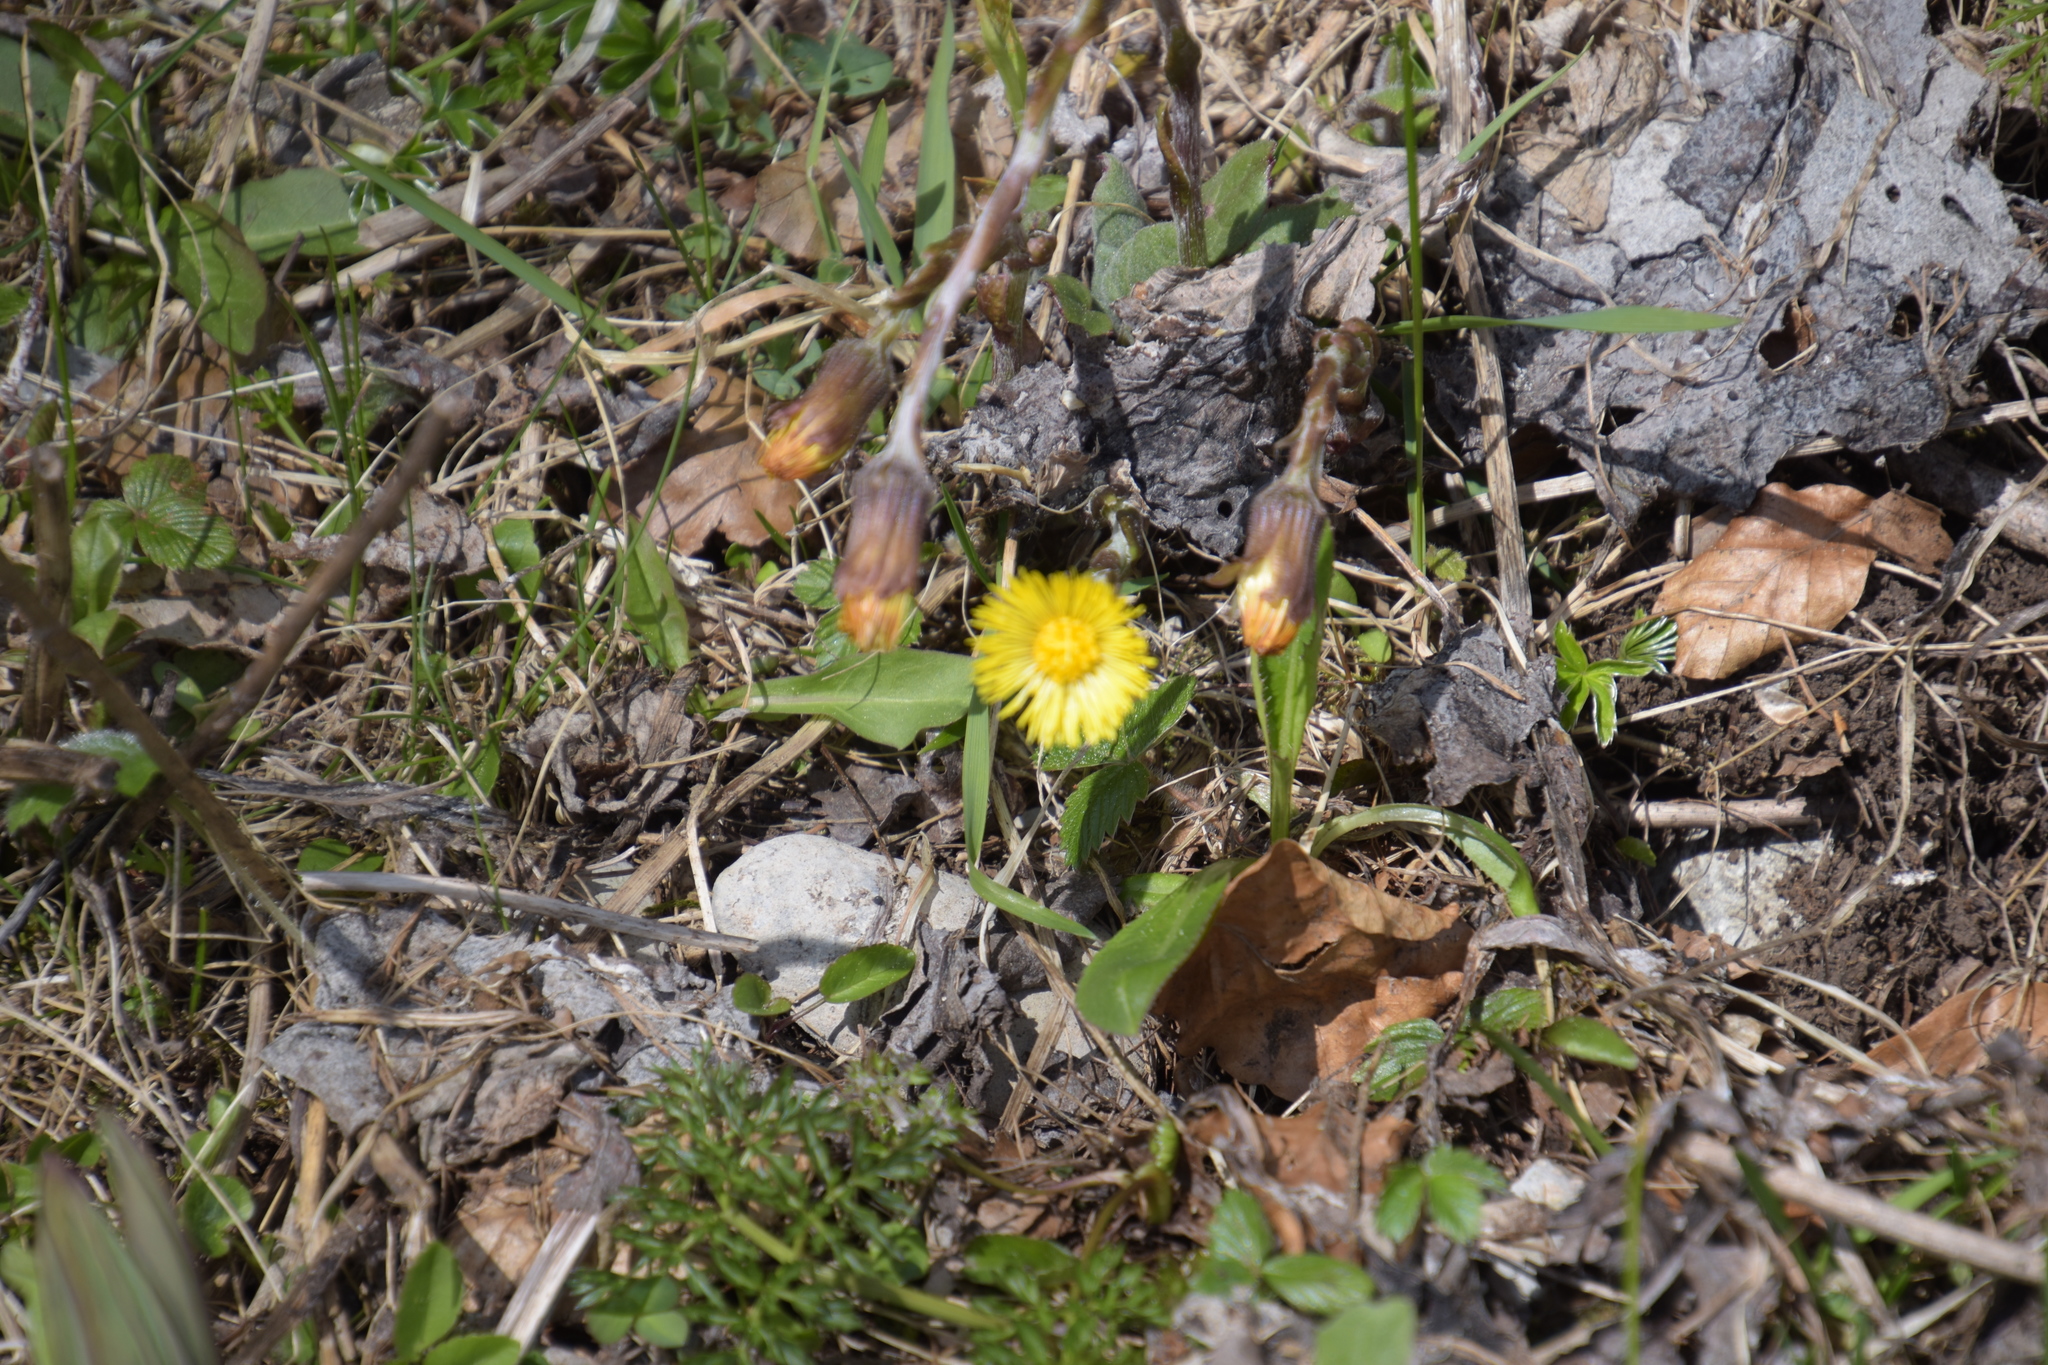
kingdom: Plantae
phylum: Tracheophyta
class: Magnoliopsida
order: Asterales
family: Asteraceae
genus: Tussilago
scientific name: Tussilago farfara
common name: Coltsfoot
